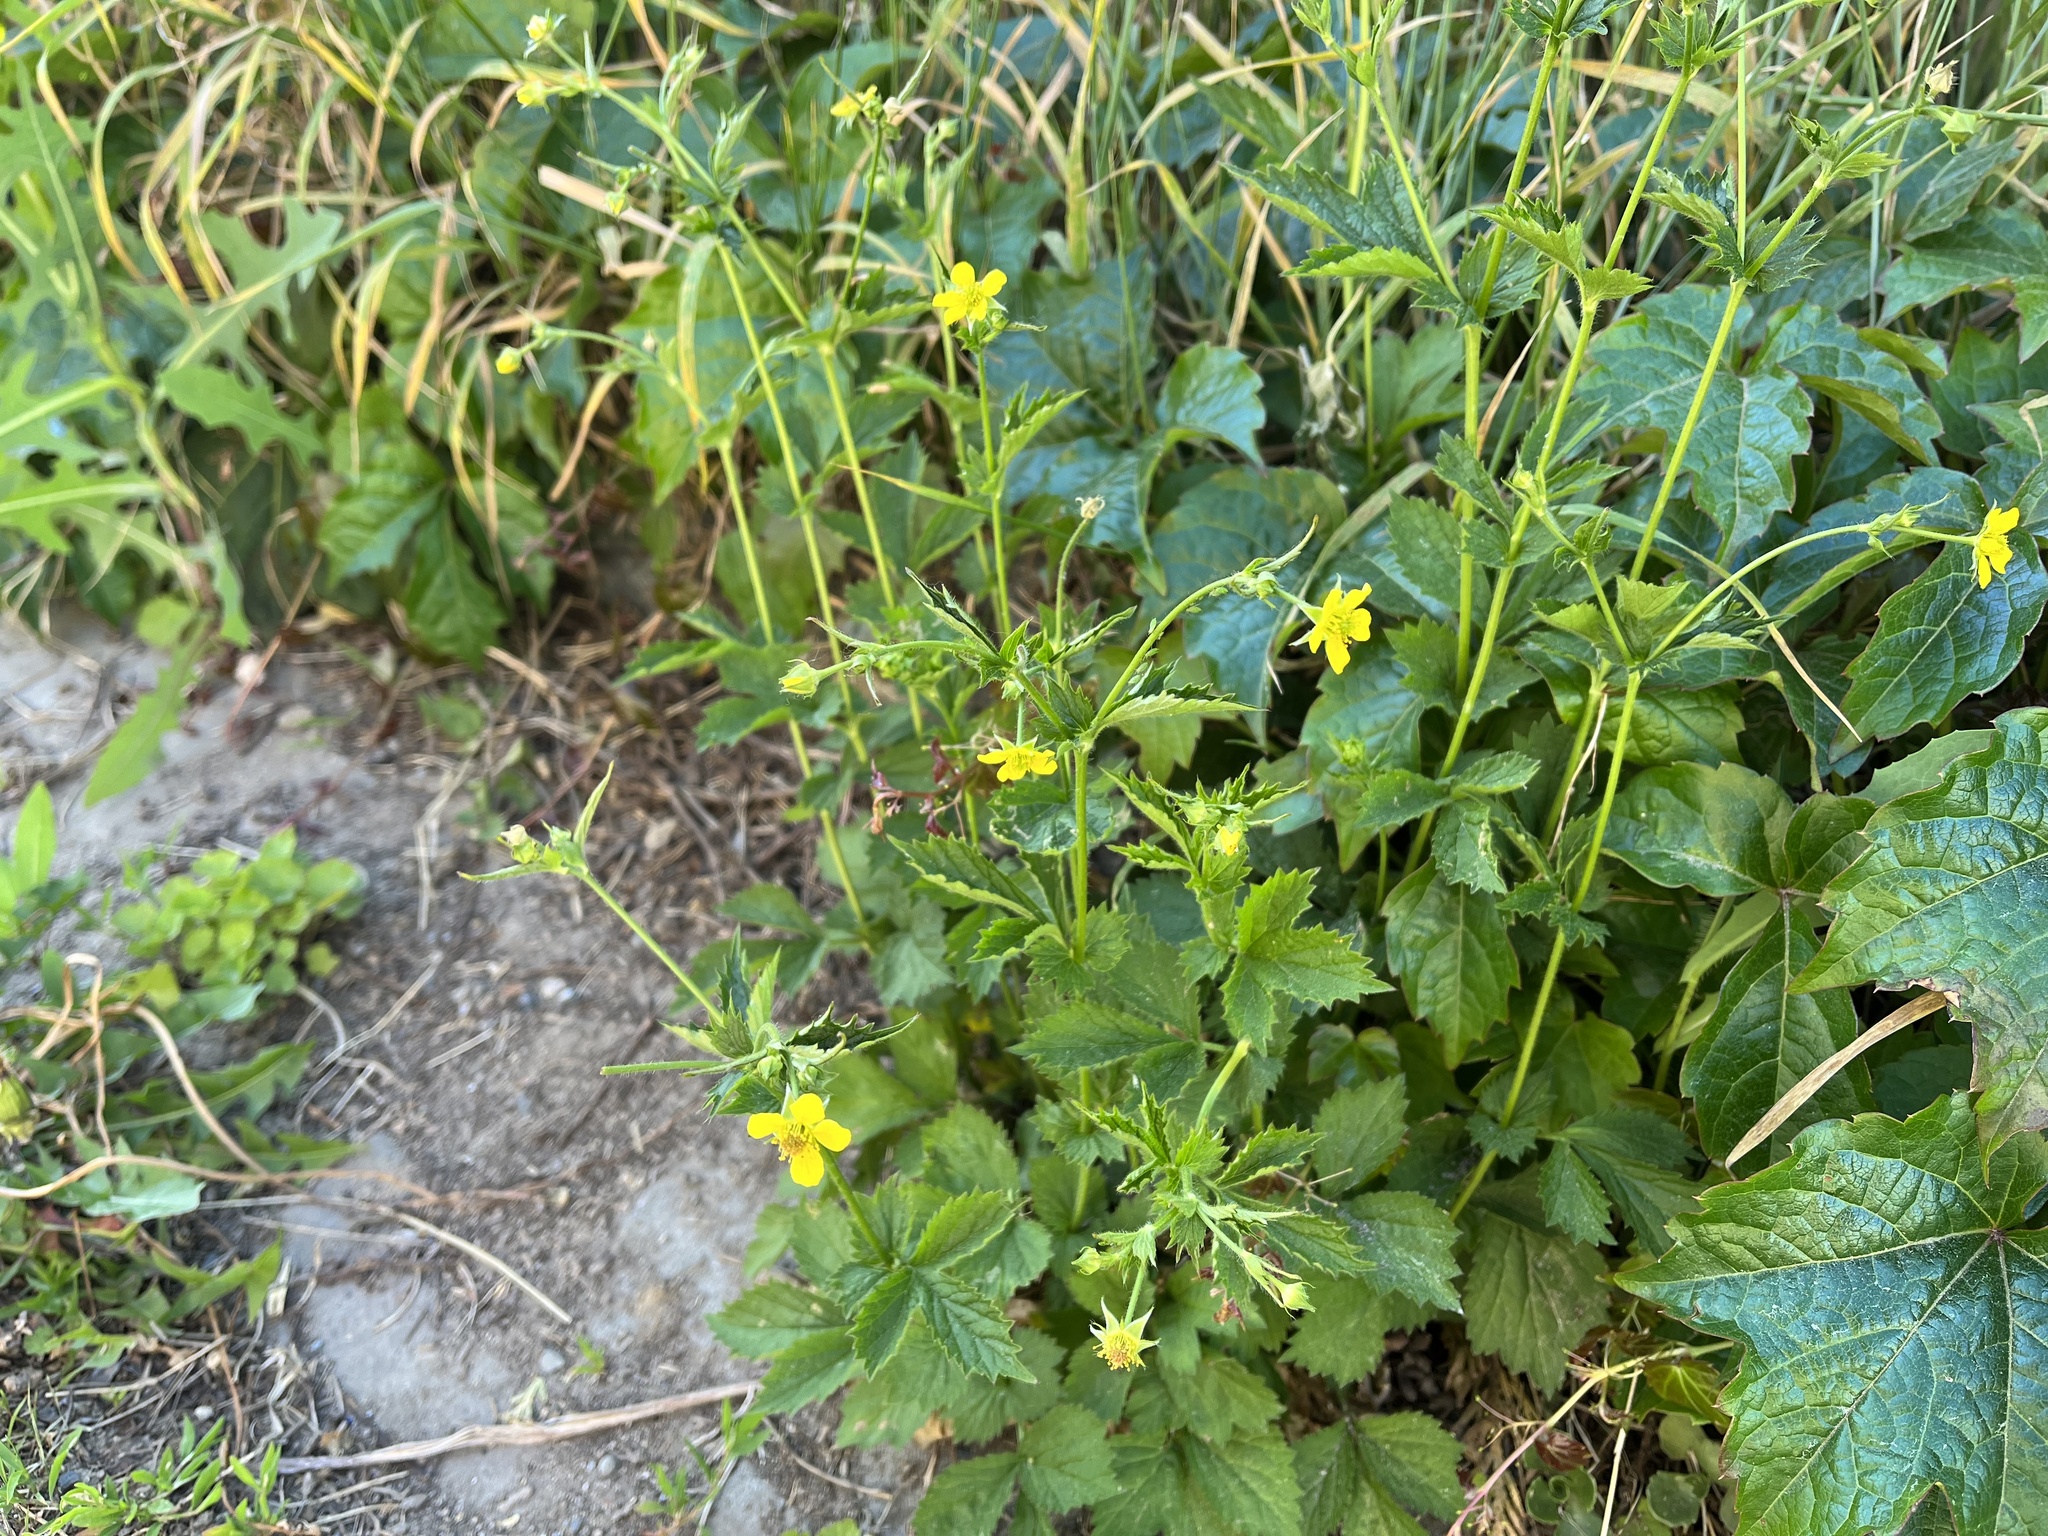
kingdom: Plantae
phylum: Tracheophyta
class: Magnoliopsida
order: Rosales
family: Rosaceae
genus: Geum
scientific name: Geum urbanum
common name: Wood avens
